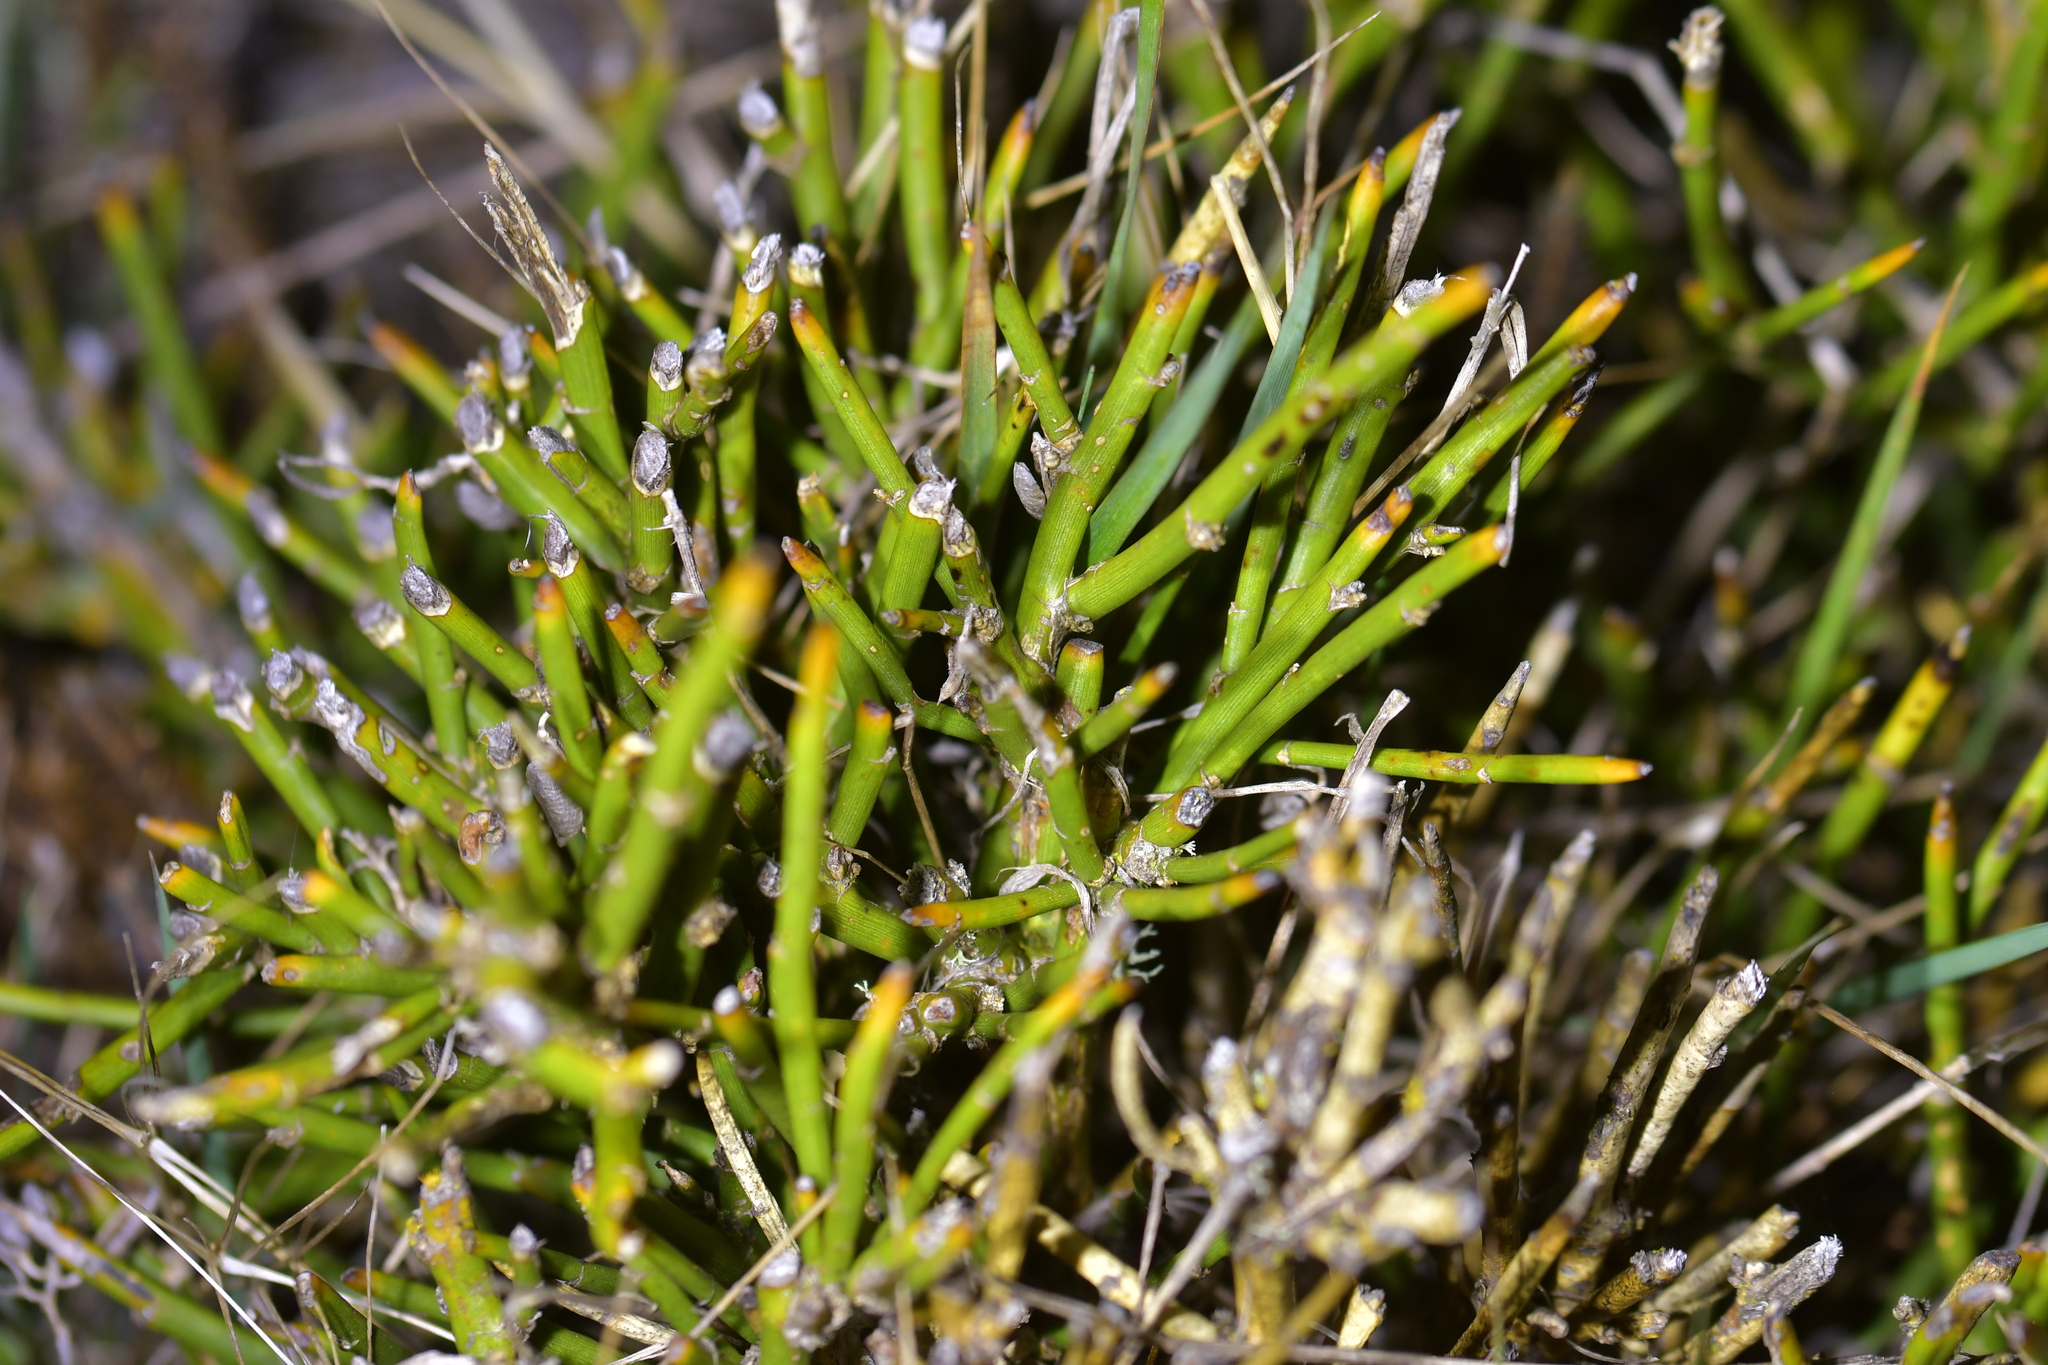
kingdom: Plantae
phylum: Tracheophyta
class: Magnoliopsida
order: Fabales
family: Fabaceae
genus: Carmichaelia
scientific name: Carmichaelia petriei
